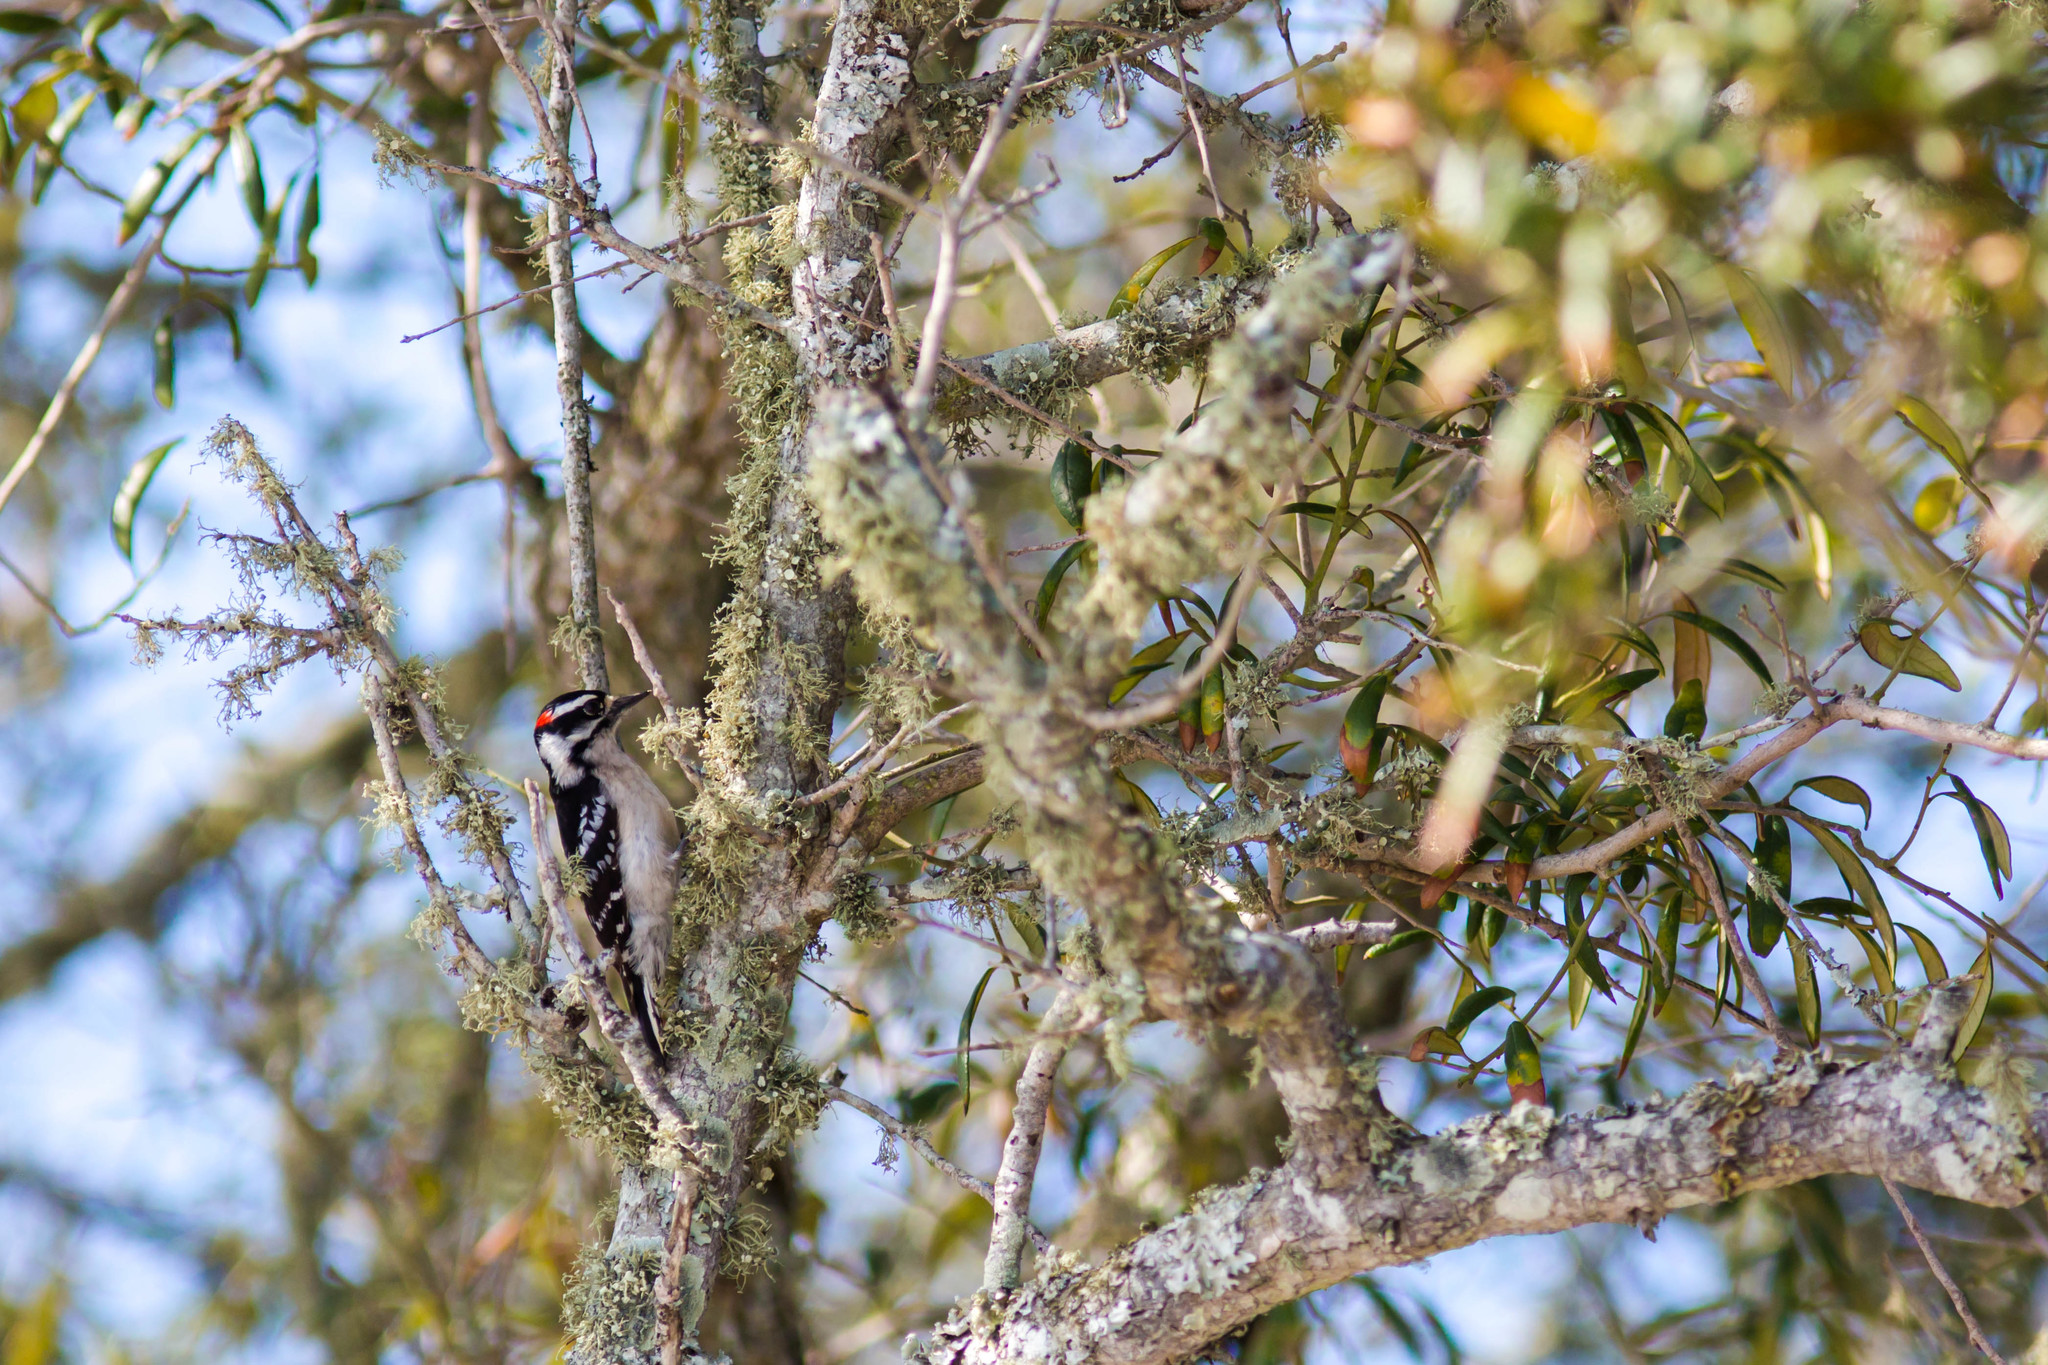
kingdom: Animalia
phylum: Chordata
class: Aves
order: Piciformes
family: Picidae
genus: Dryobates
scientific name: Dryobates pubescens
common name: Downy woodpecker
